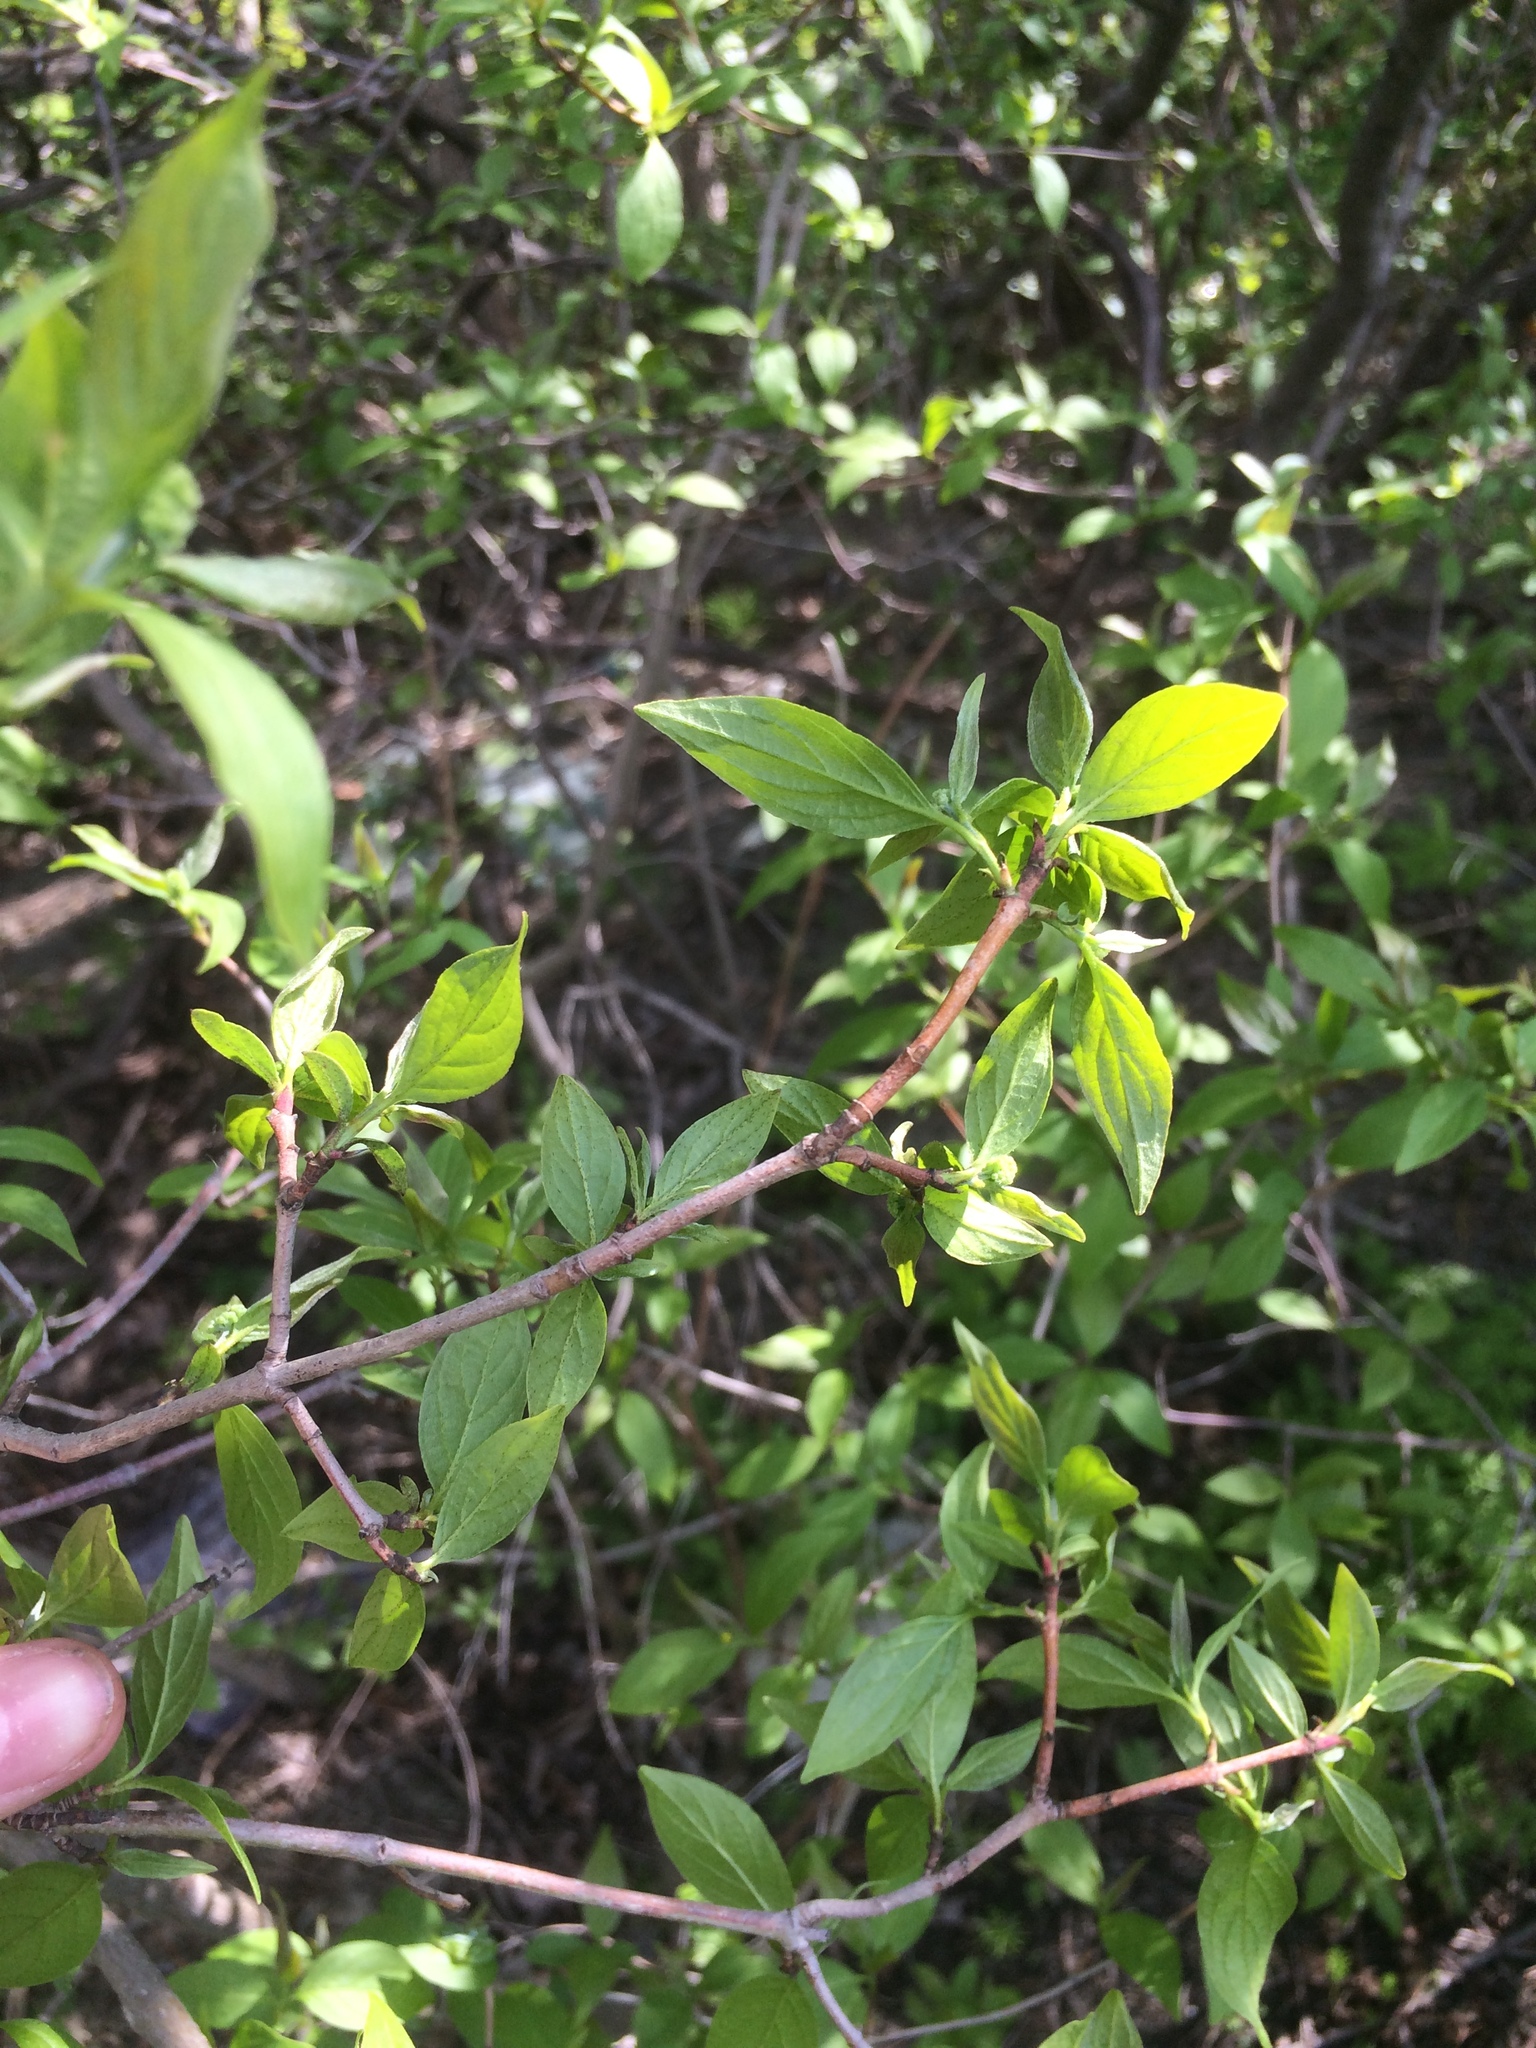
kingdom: Plantae
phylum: Tracheophyta
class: Magnoliopsida
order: Cornales
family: Cornaceae
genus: Cornus
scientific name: Cornus amomum
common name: Silky dogwood
